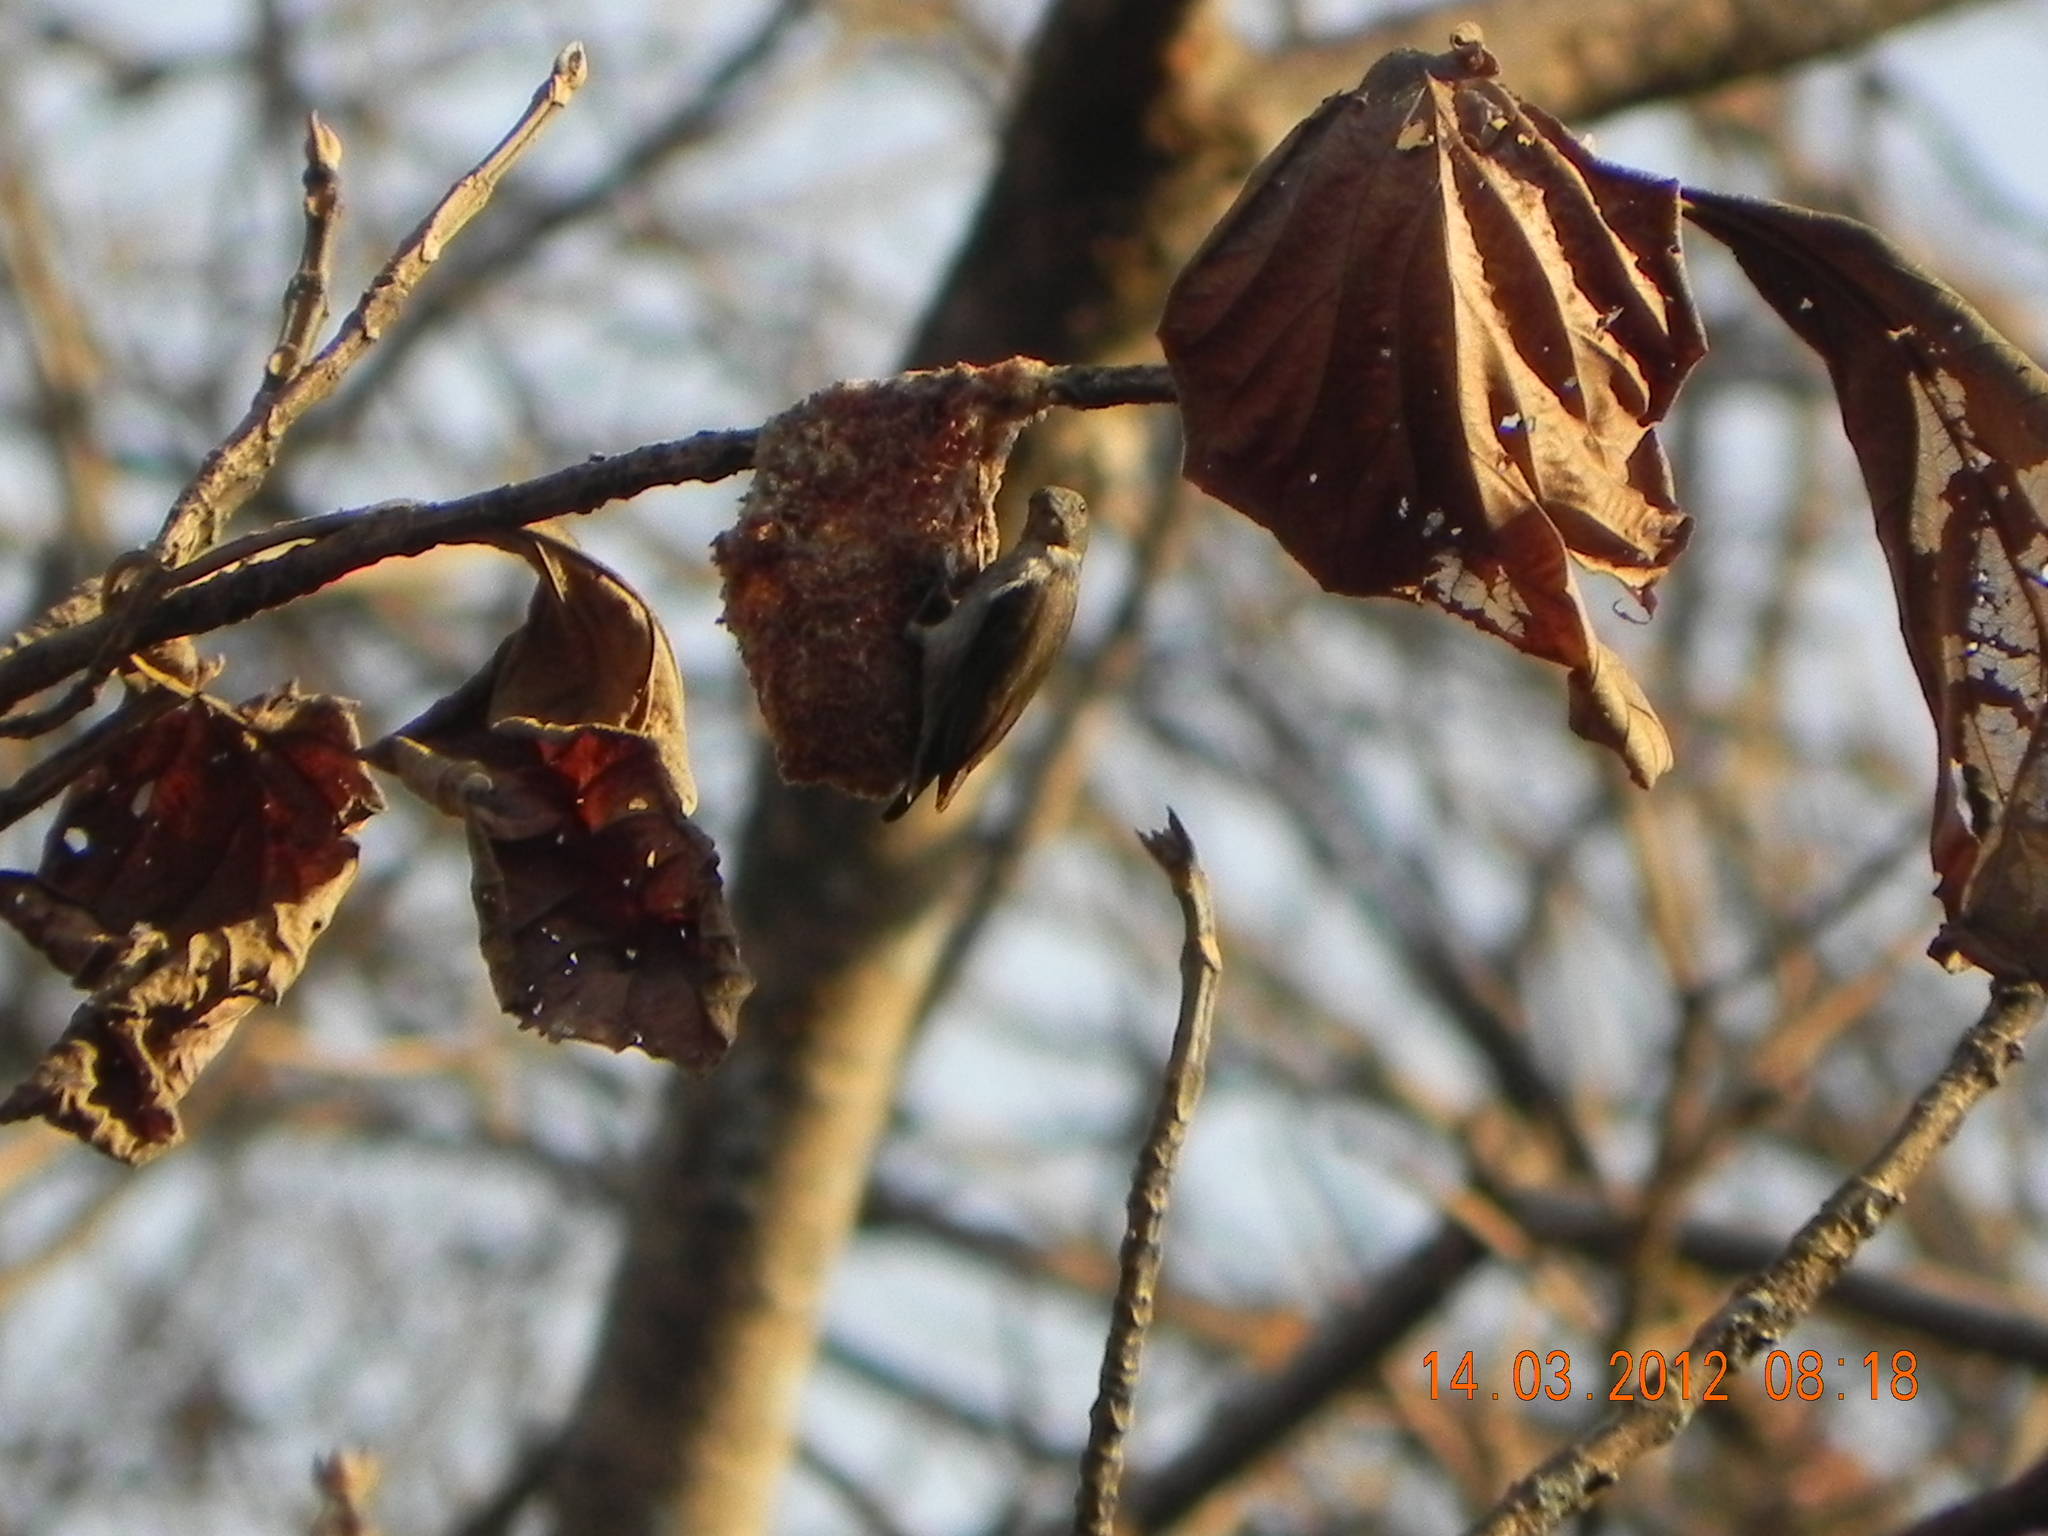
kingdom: Animalia
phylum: Chordata
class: Aves
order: Passeriformes
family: Dicaeidae
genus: Dicaeum
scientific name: Dicaeum agile
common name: Thick-billed flowerpecker
